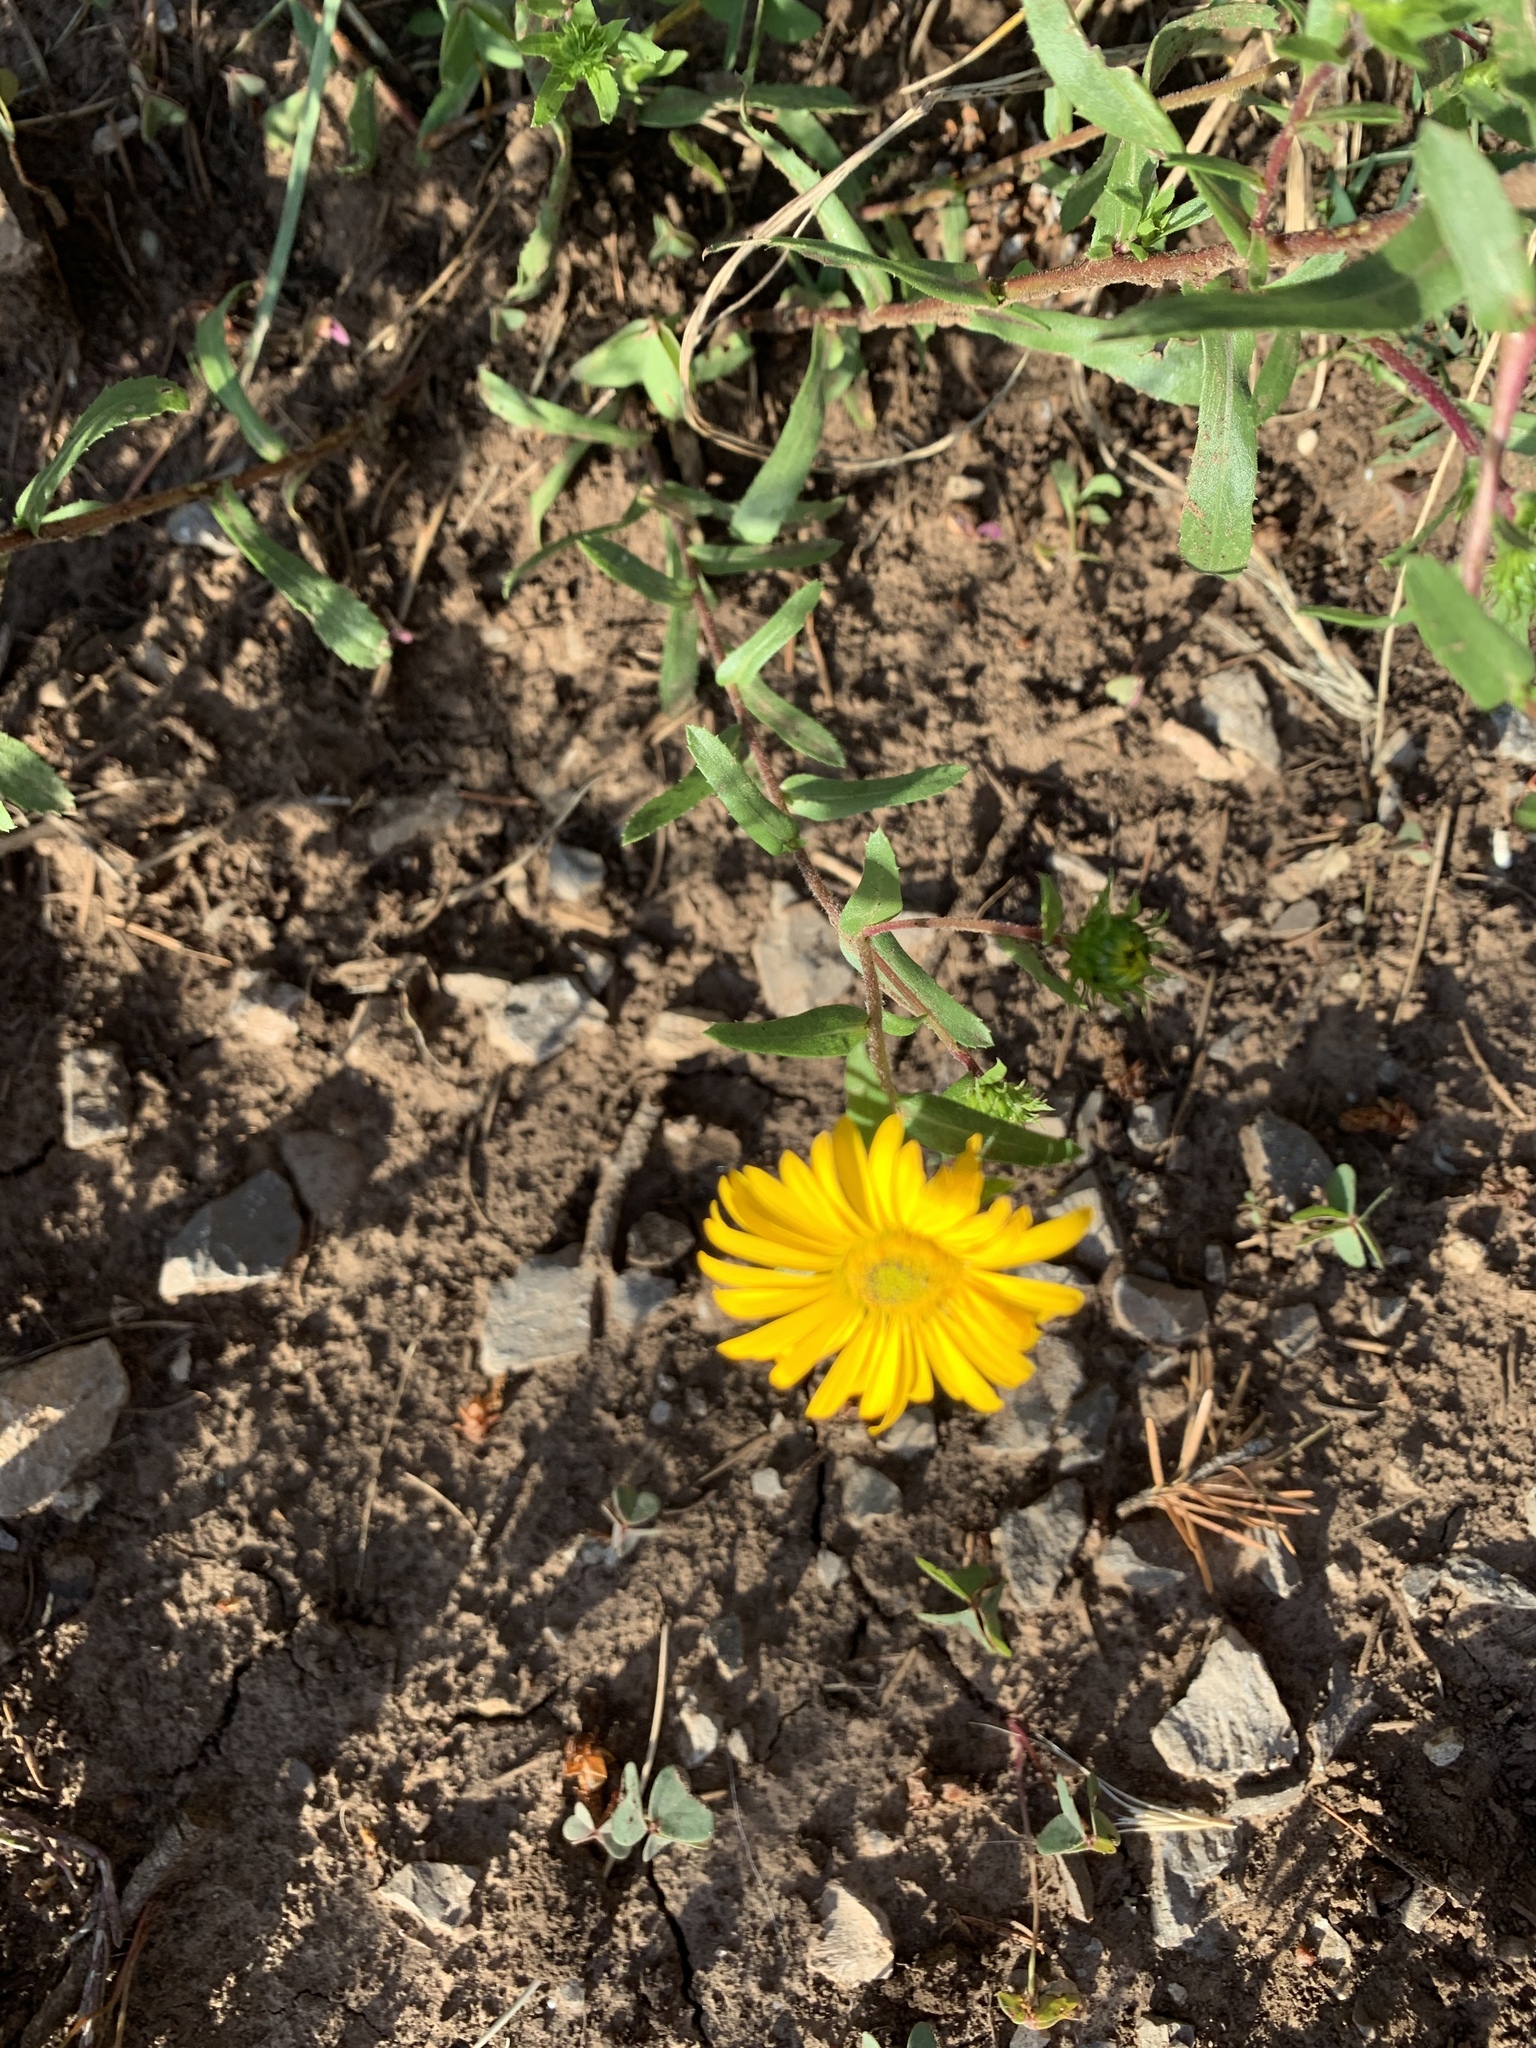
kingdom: Plantae
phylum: Tracheophyta
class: Magnoliopsida
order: Asterales
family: Asteraceae
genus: Grindelia
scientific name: Grindelia scabra
